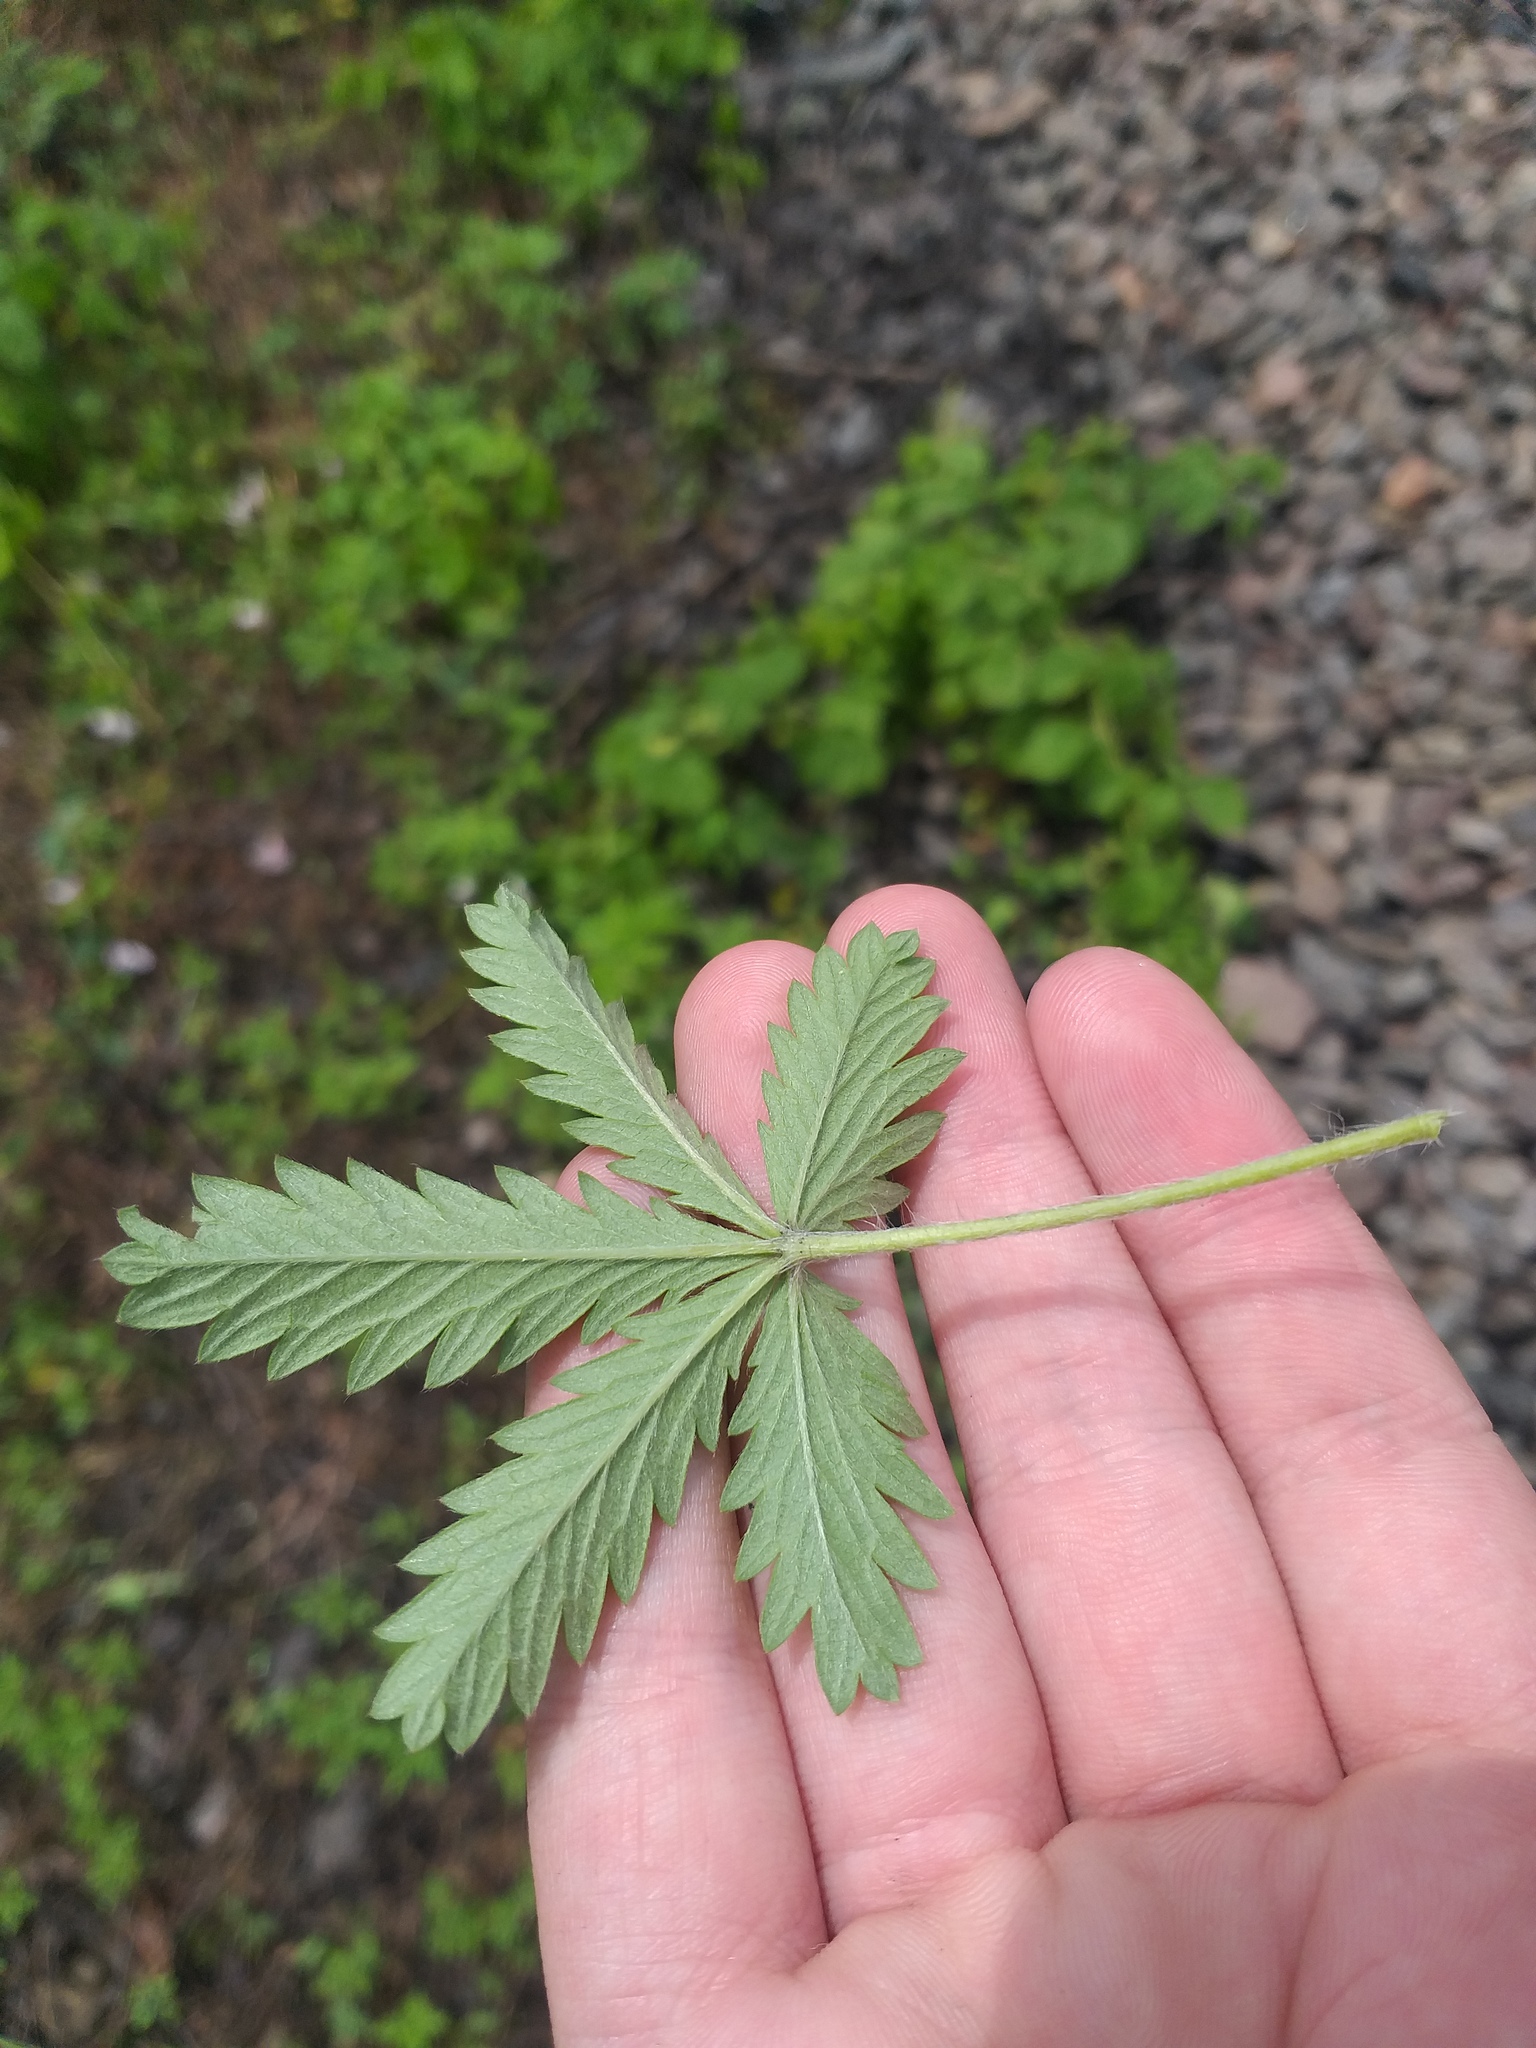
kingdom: Plantae
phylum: Tracheophyta
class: Magnoliopsida
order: Rosales
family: Rosaceae
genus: Potentilla
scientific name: Potentilla inclinata
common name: Grey cinquefoil
